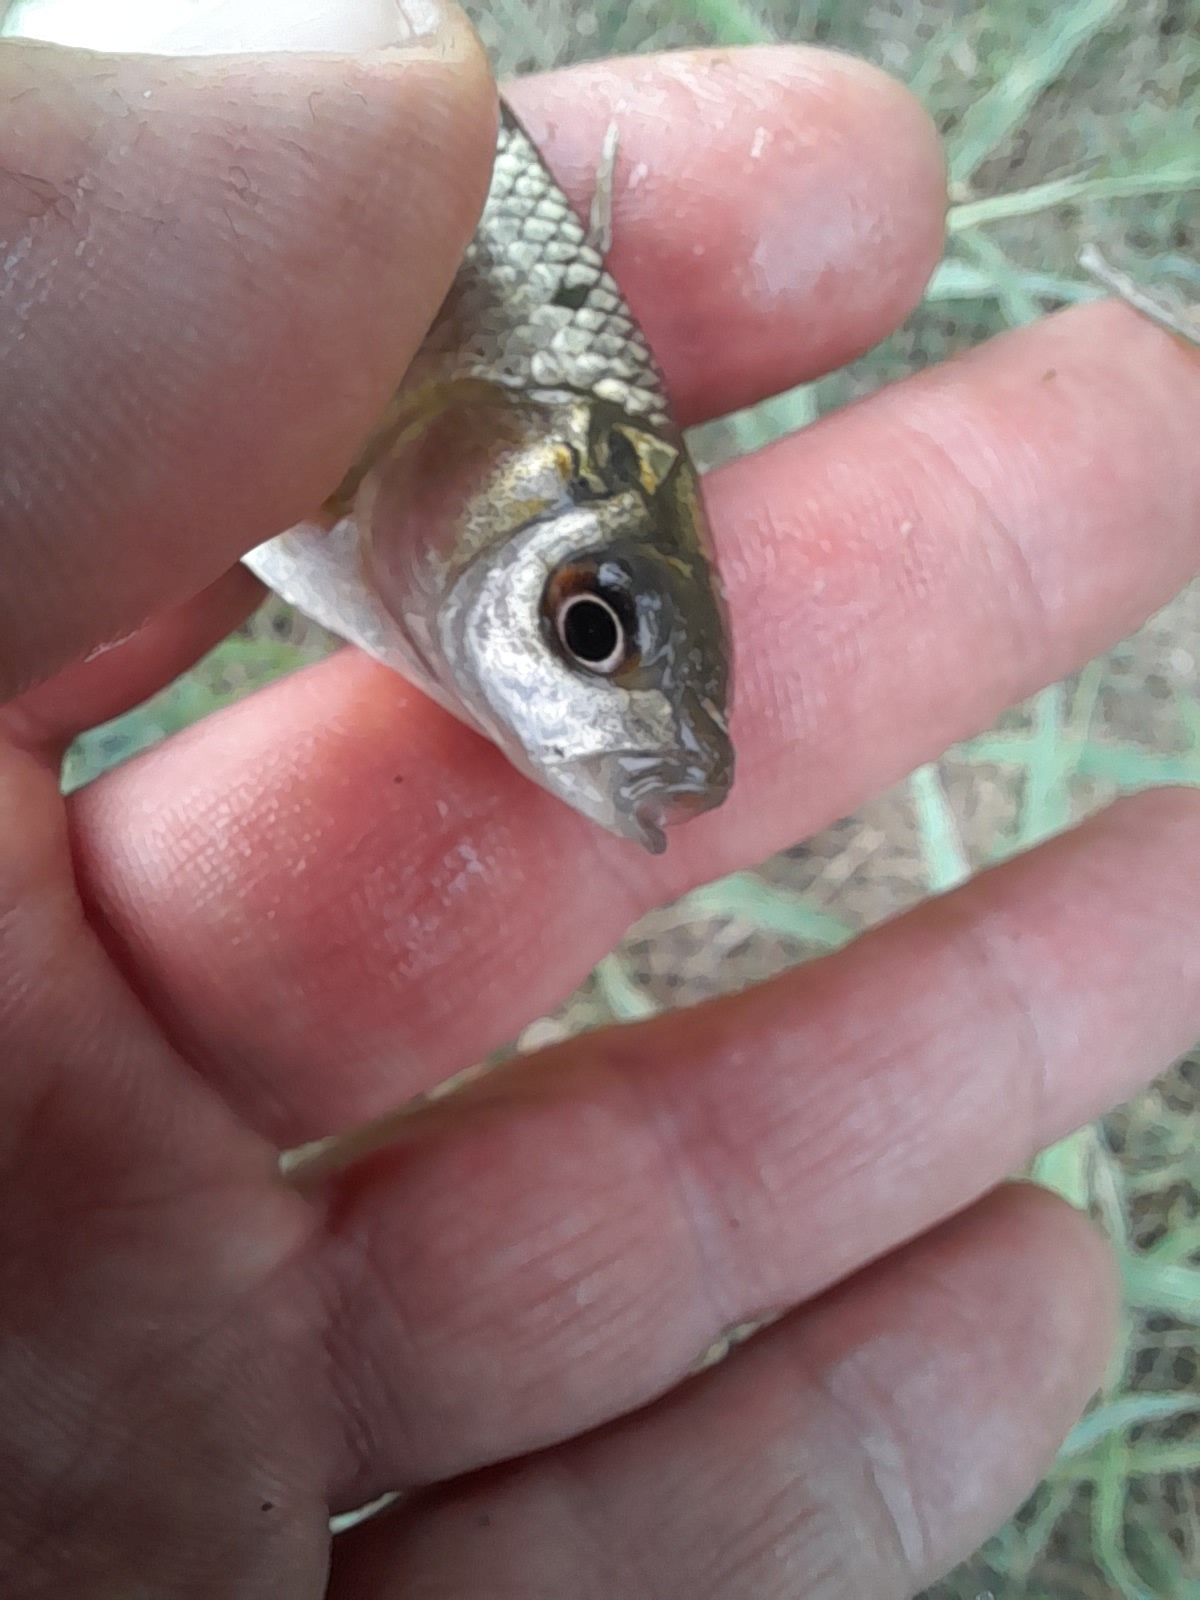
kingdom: Animalia
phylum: Chordata
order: Cypriniformes
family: Cyprinidae
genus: Carassius
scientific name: Carassius gibelio
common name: Prussian carp
